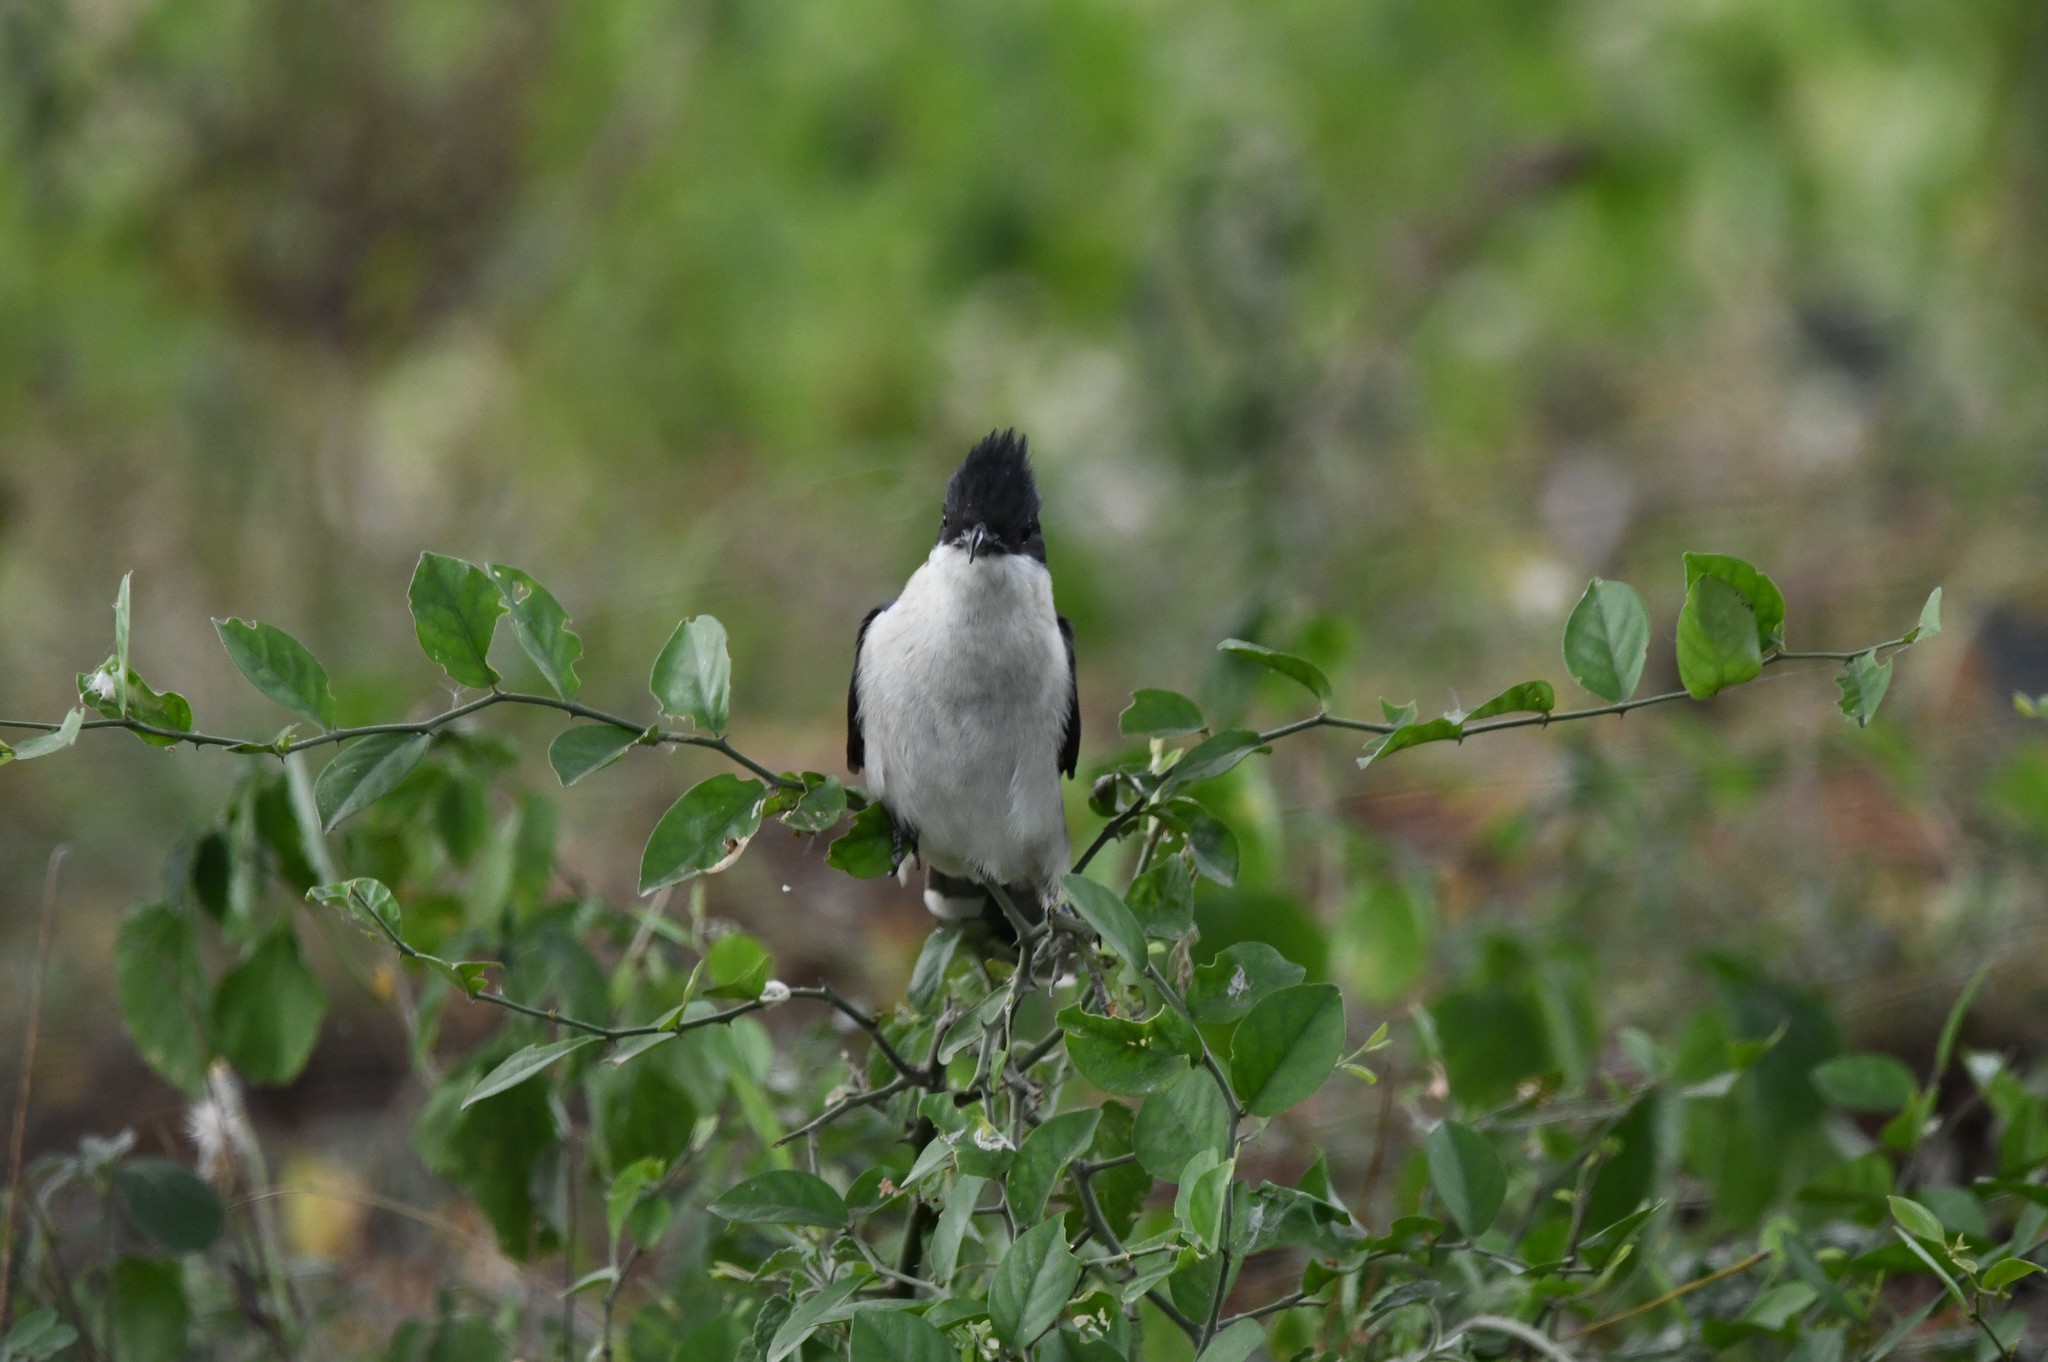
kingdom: Animalia
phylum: Chordata
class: Aves
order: Cuculiformes
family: Cuculidae
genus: Clamator
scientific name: Clamator jacobinus
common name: Jacobin cuckoo
